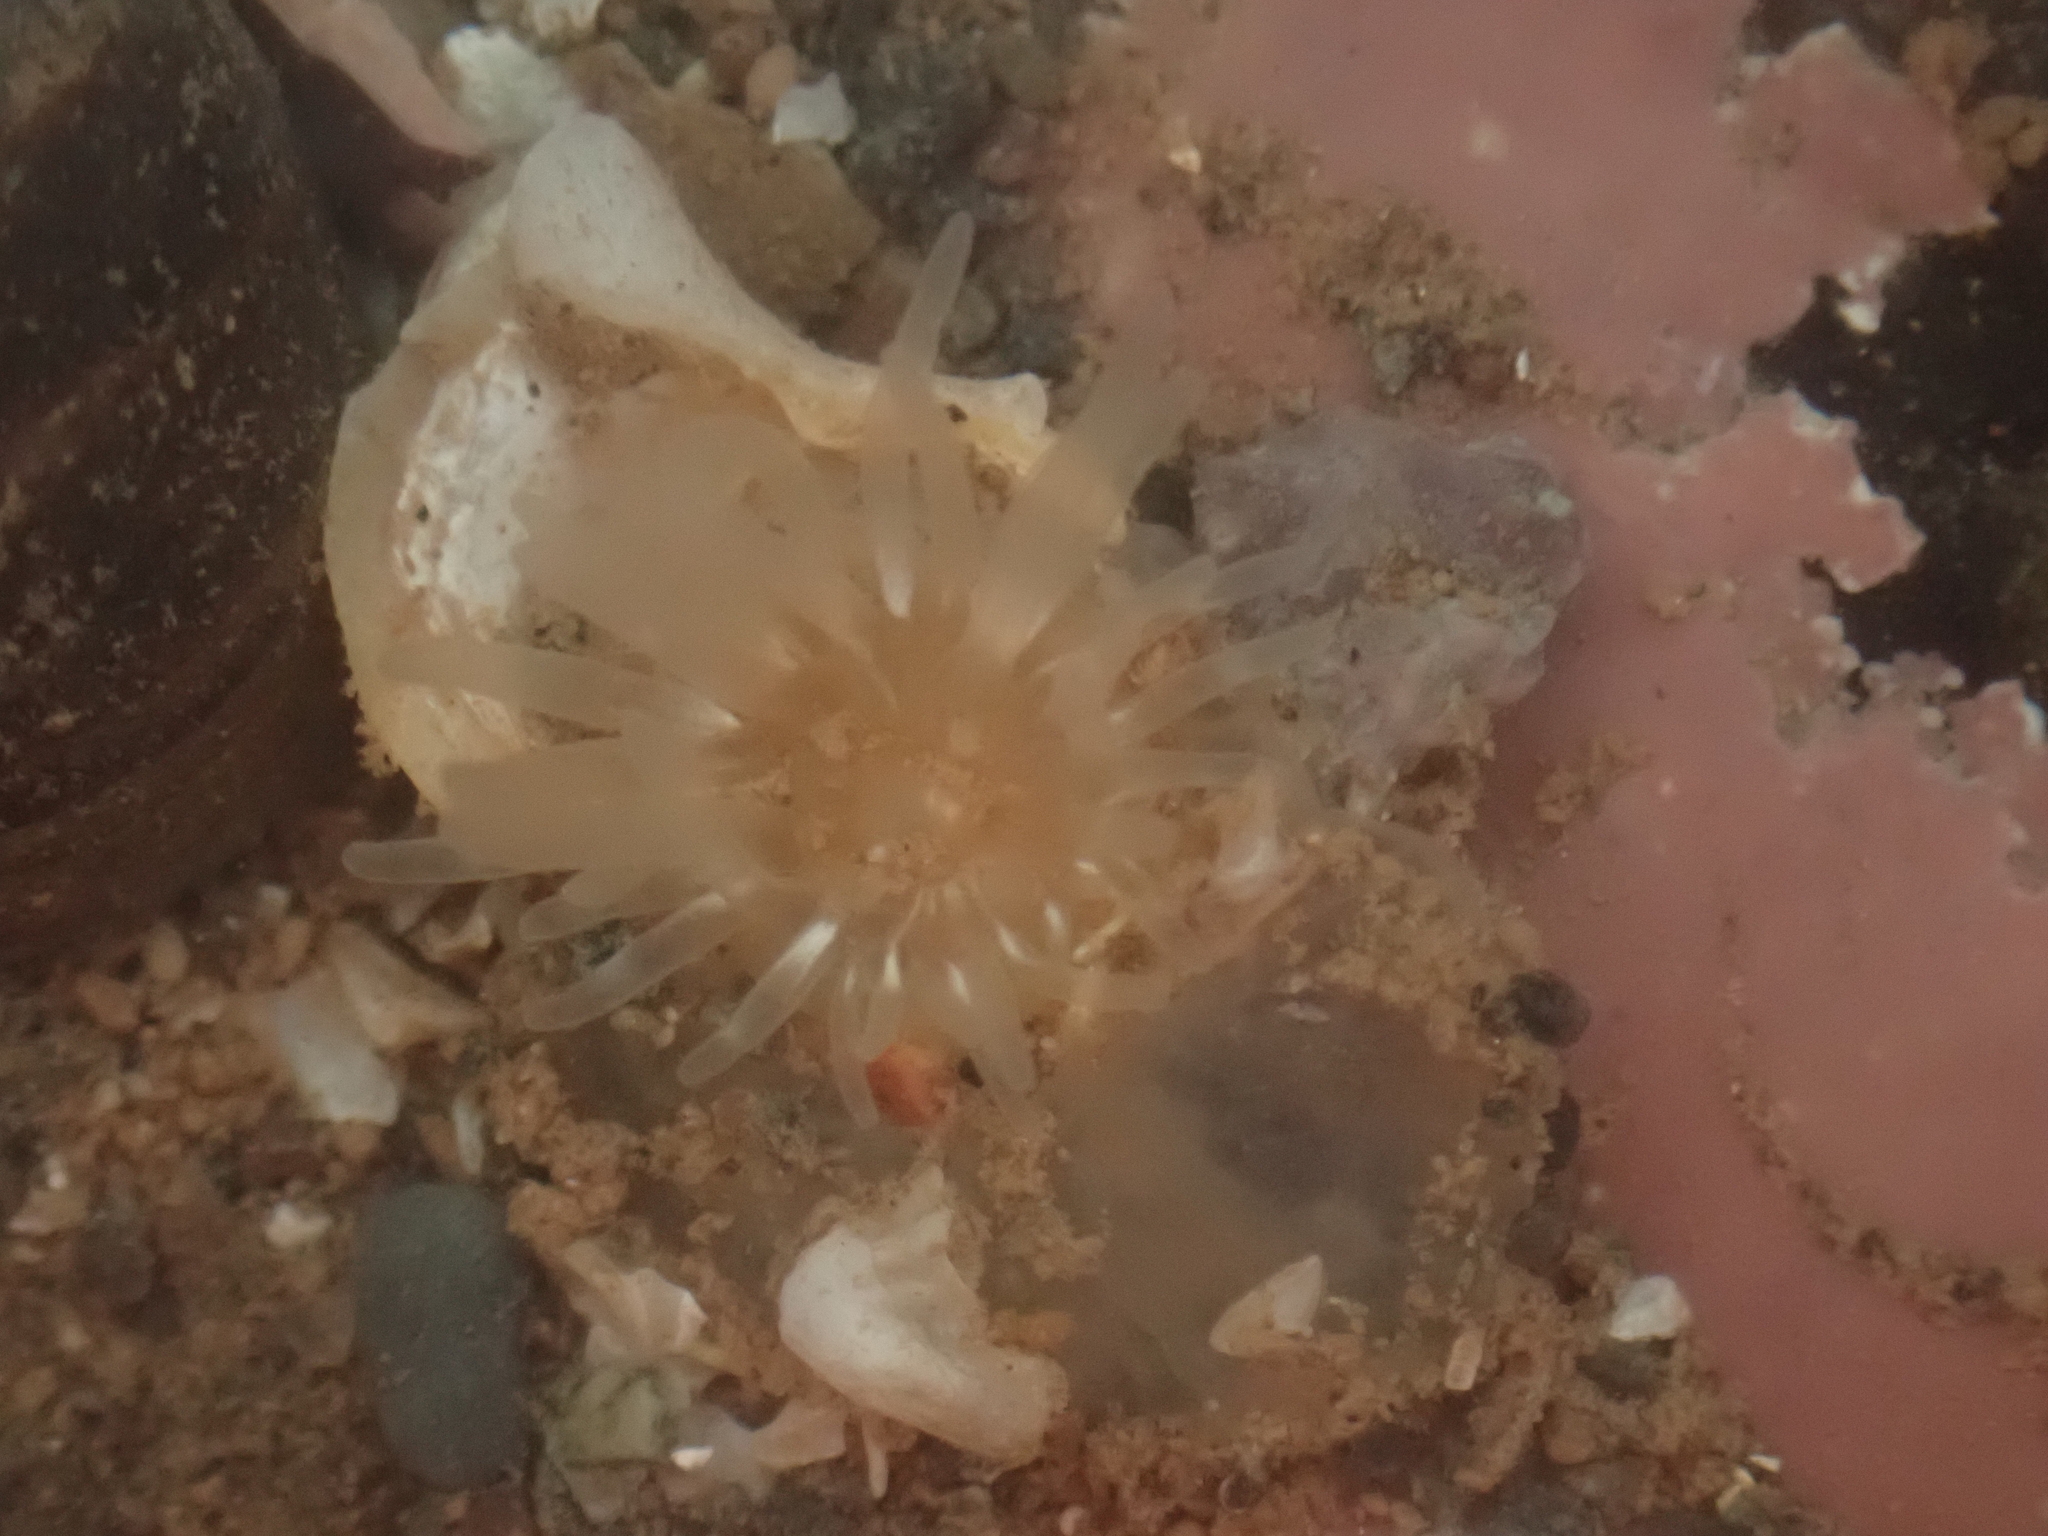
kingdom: Animalia
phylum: Cnidaria
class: Anthozoa
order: Actiniaria
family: Actiniidae
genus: Aulactinia
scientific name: Aulactinia stella
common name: Silver-spotted sea anemone
